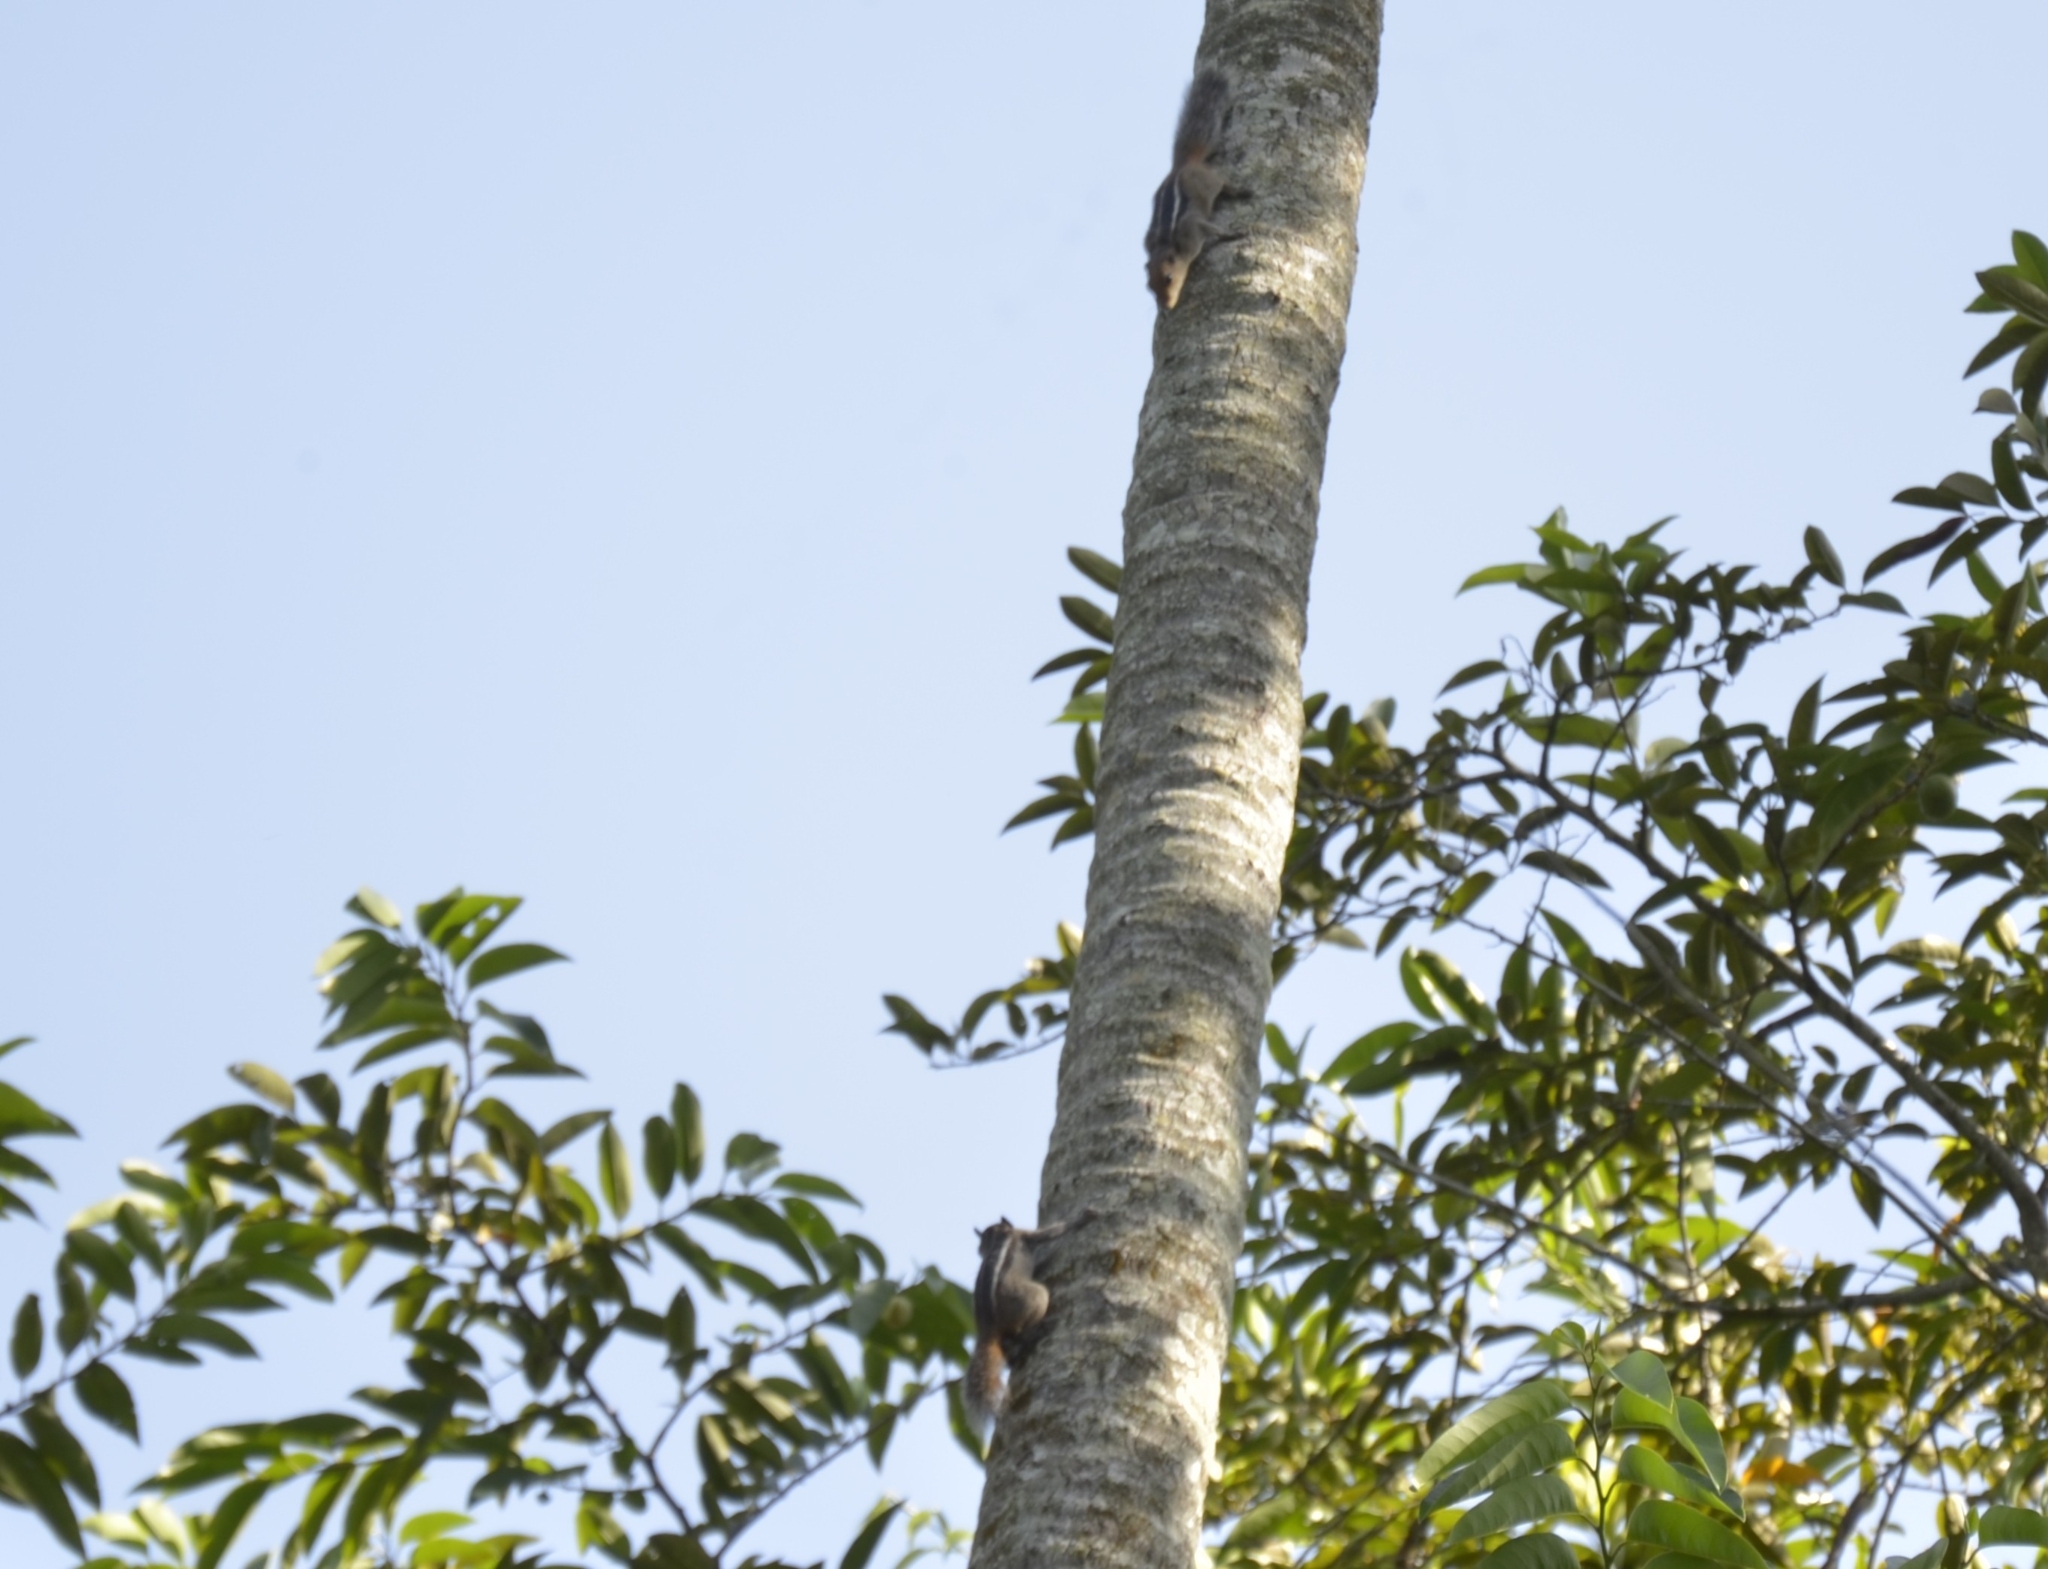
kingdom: Animalia
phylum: Chordata
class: Mammalia
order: Rodentia
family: Sciuridae
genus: Funambulus
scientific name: Funambulus tristriatus
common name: Jungle palm squirrel
